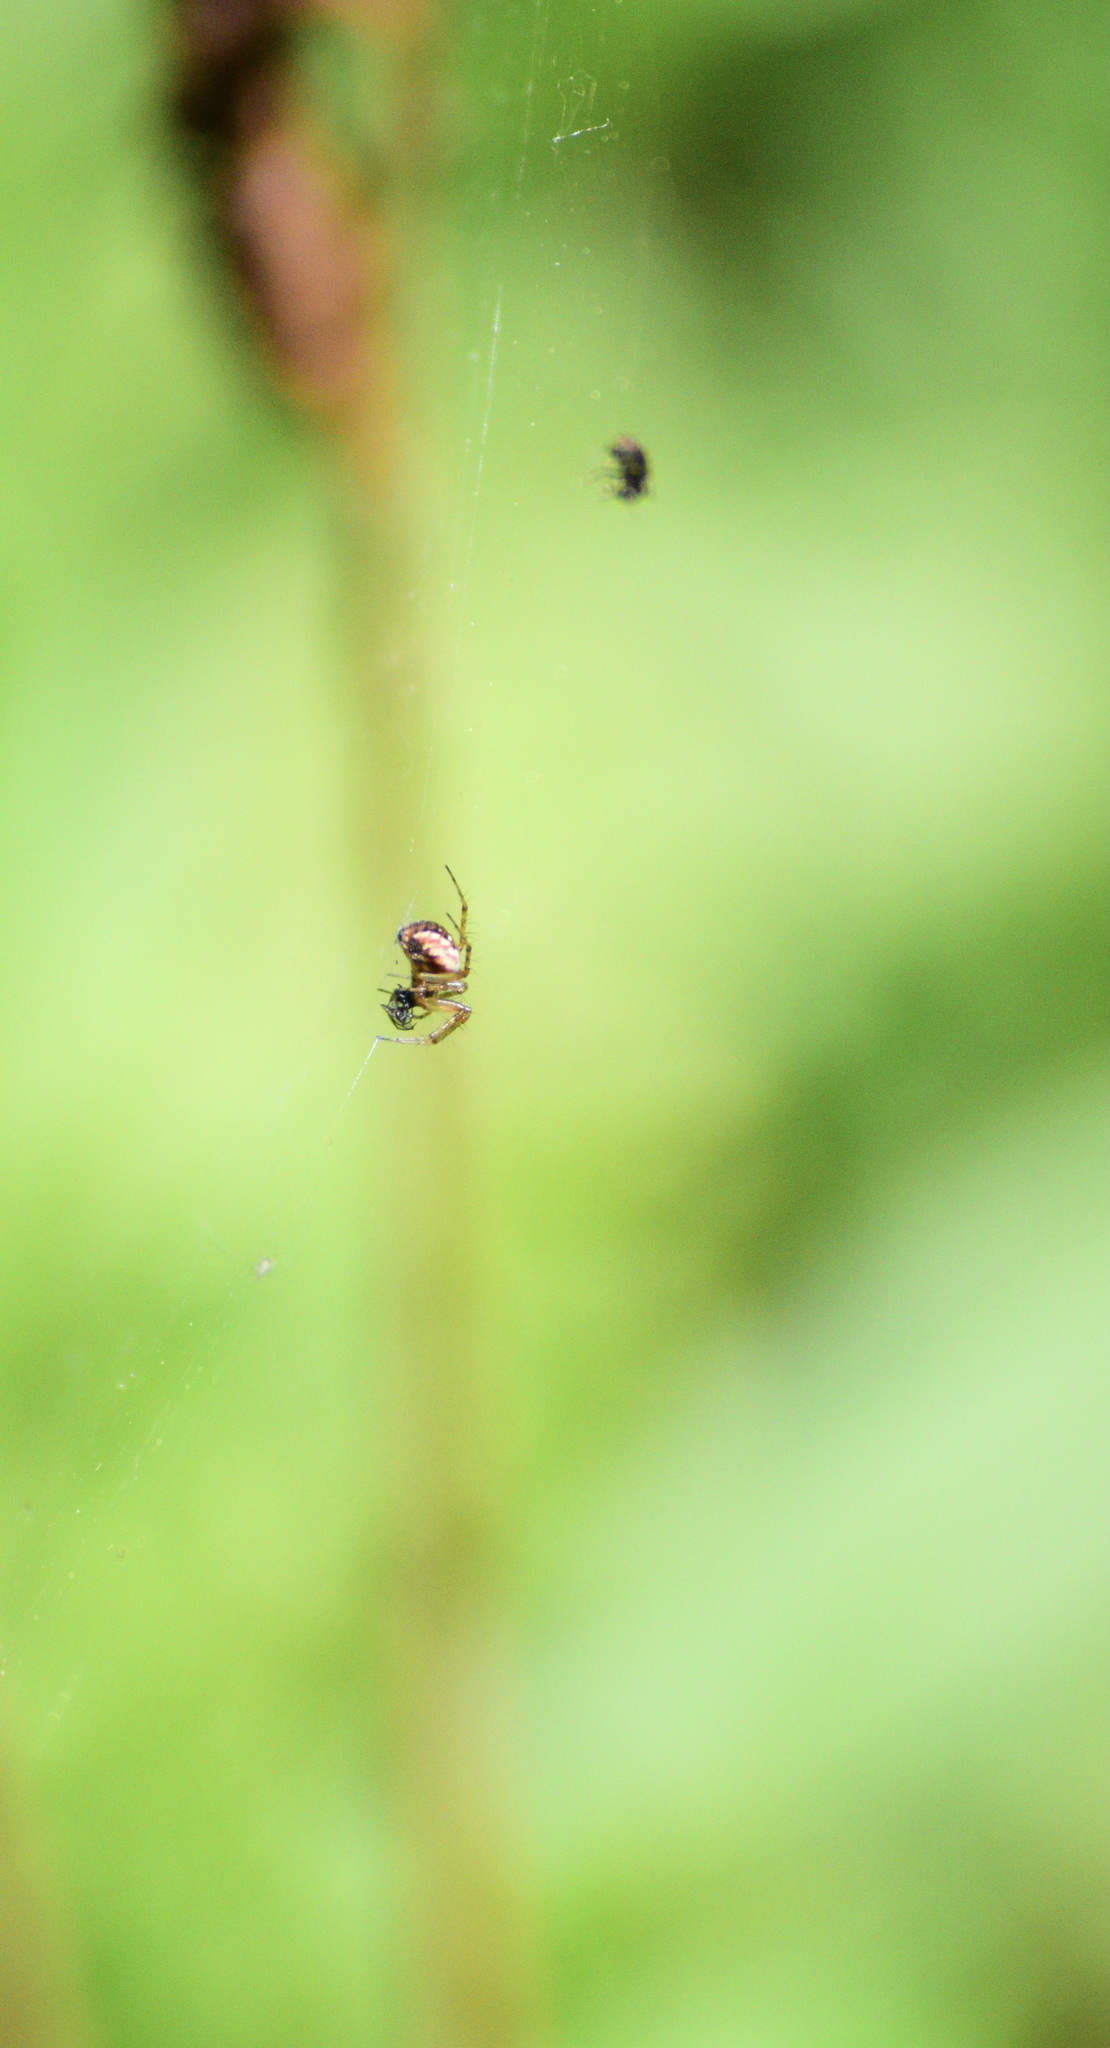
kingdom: Animalia
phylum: Arthropoda
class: Arachnida
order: Araneae
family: Araneidae
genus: Mangora
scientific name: Mangora placida
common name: Tuft-legged orbweaver
